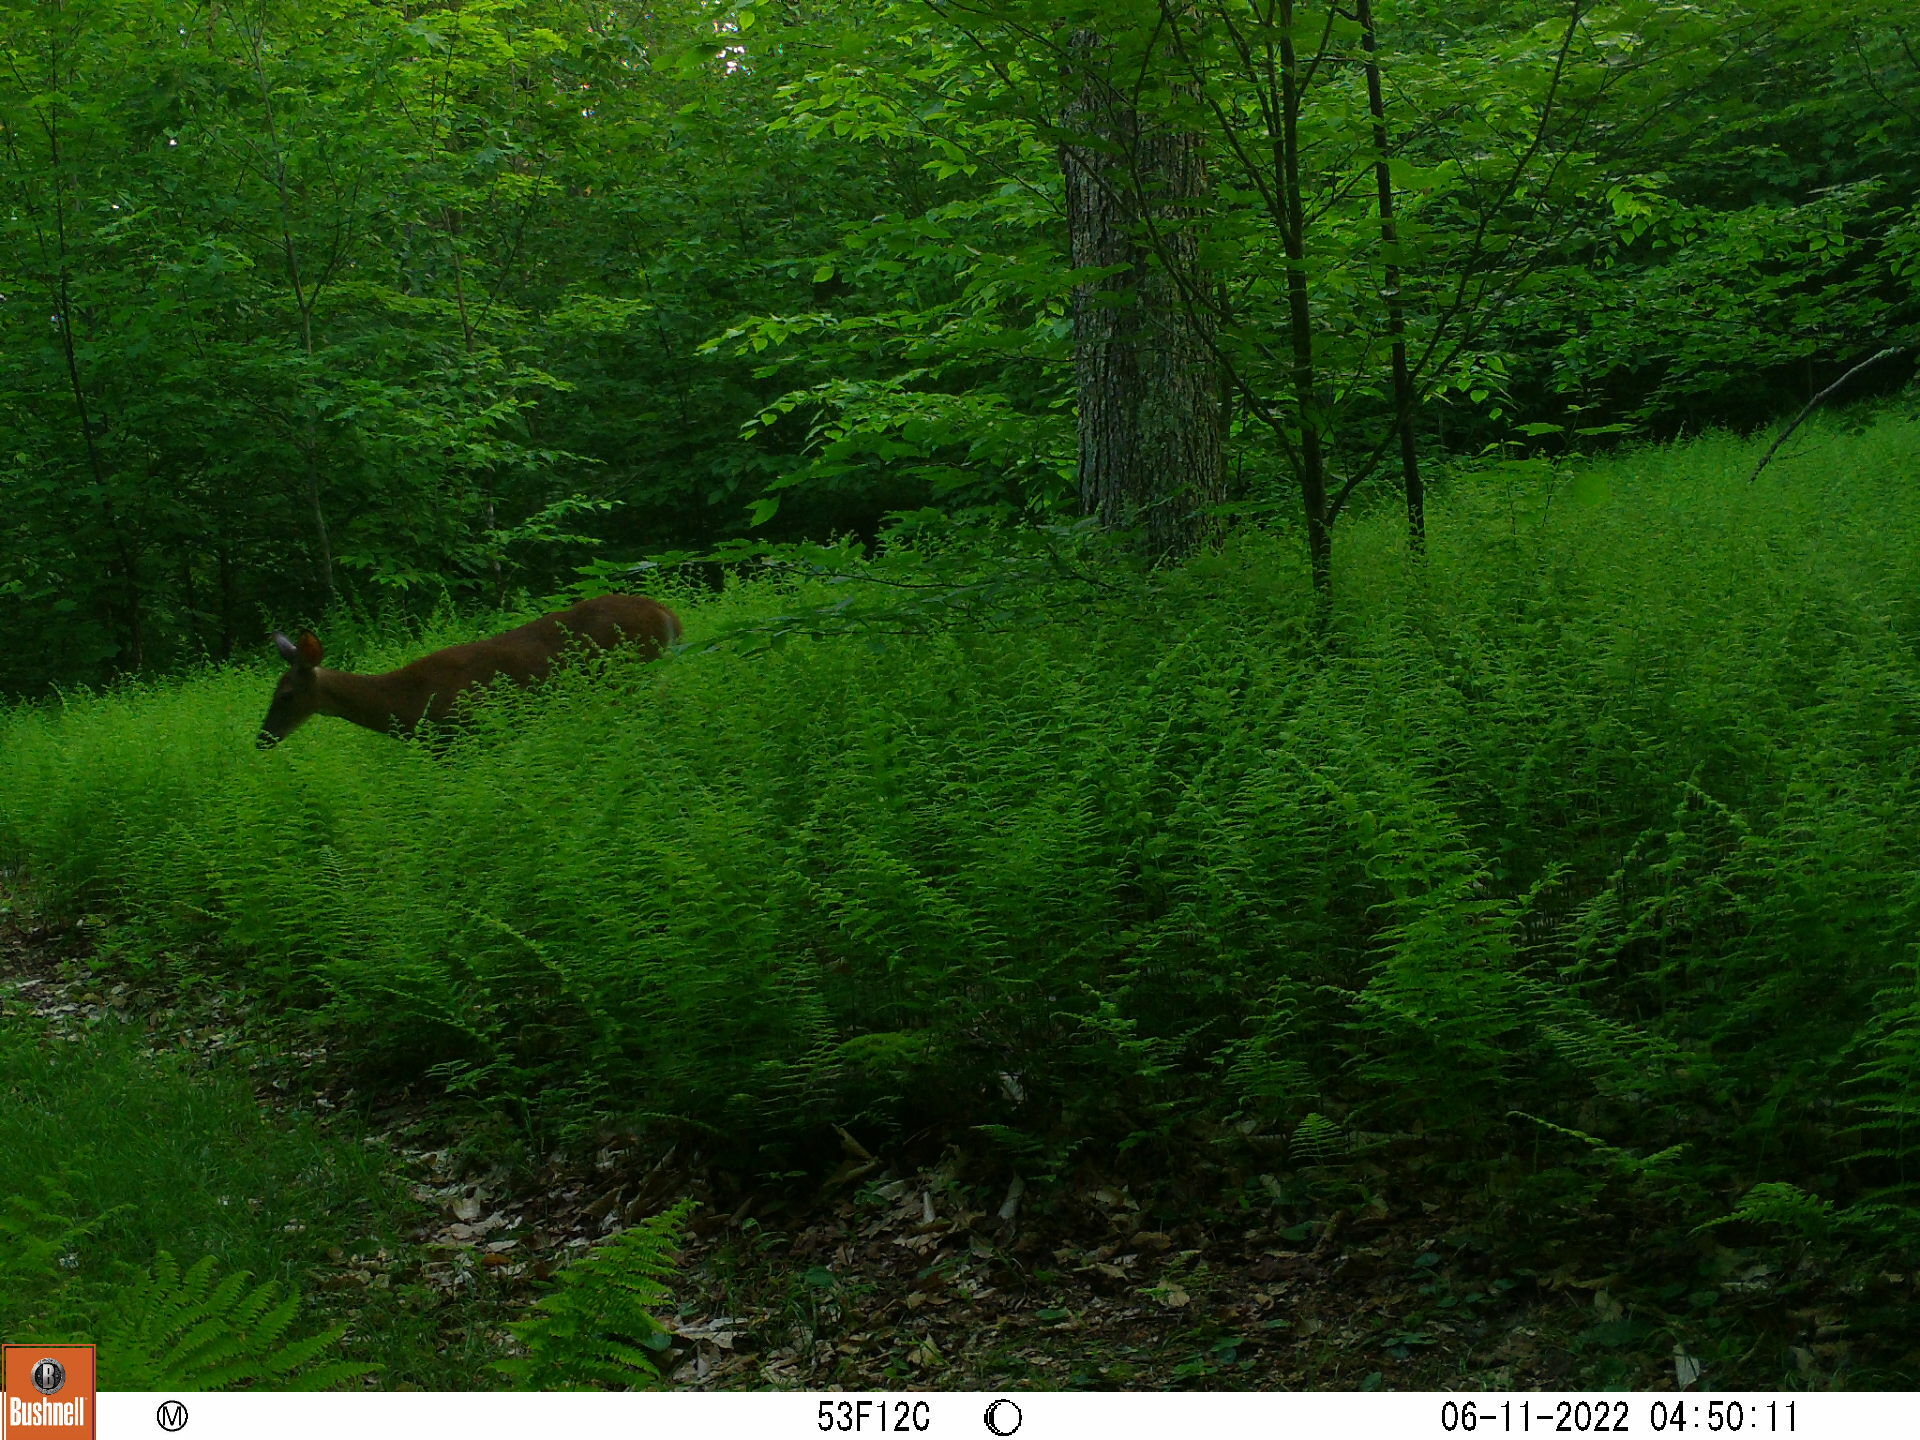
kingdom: Animalia
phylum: Chordata
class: Mammalia
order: Artiodactyla
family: Cervidae
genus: Odocoileus
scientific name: Odocoileus virginianus
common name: White-tailed deer
